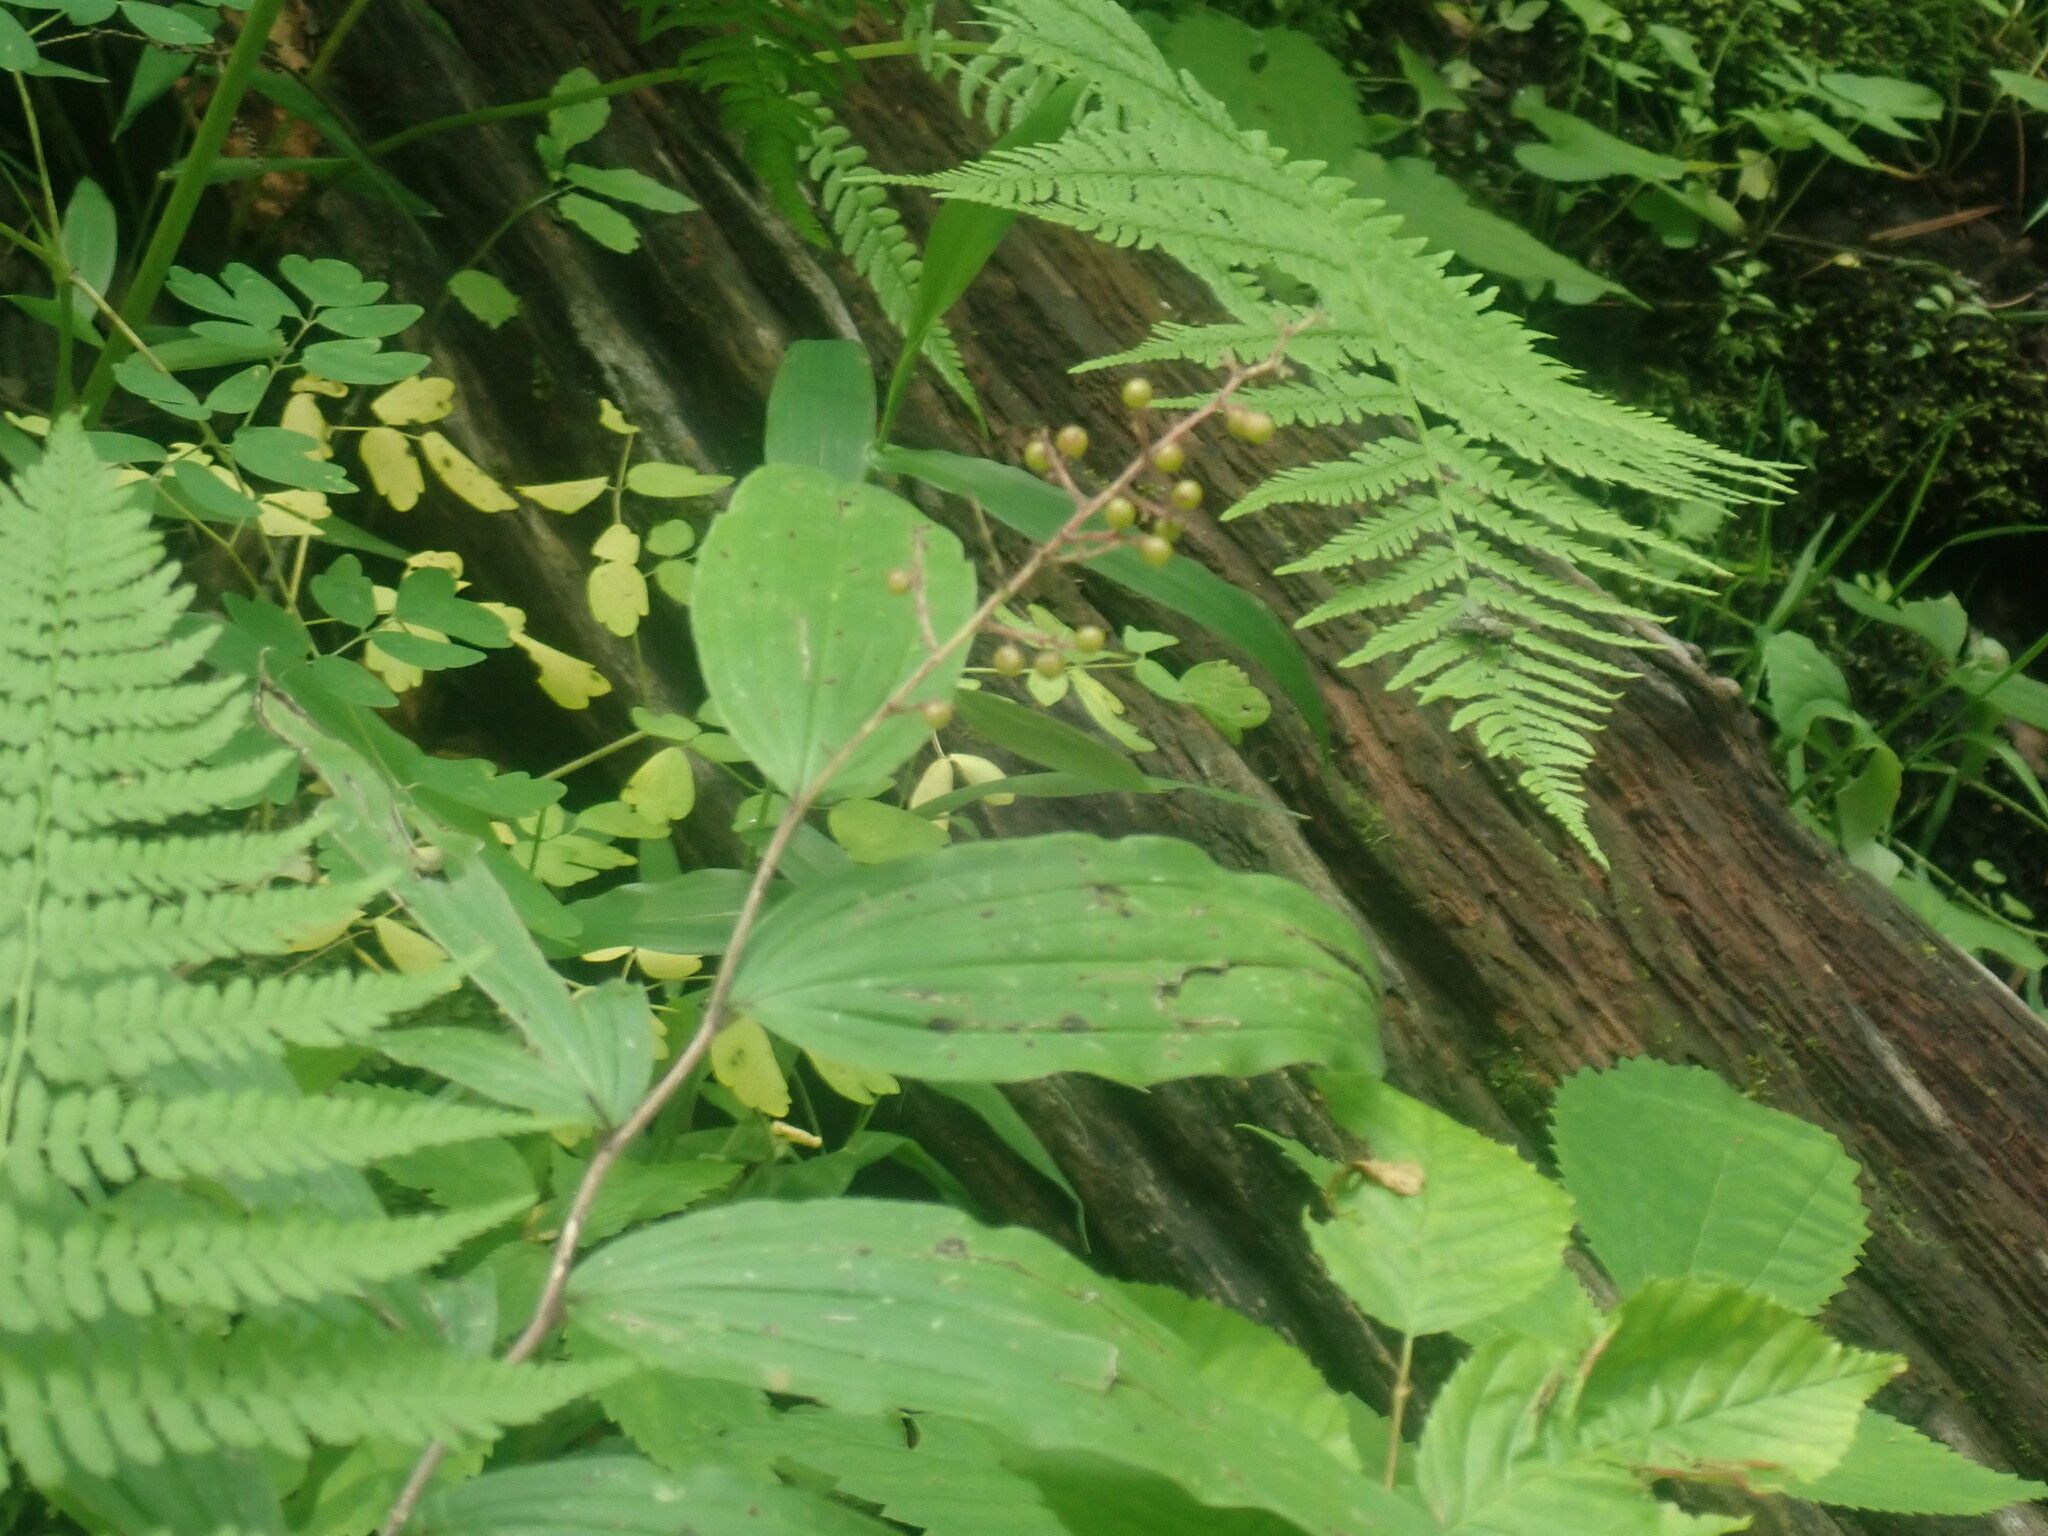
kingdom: Plantae
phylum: Tracheophyta
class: Liliopsida
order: Asparagales
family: Asparagaceae
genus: Maianthemum
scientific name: Maianthemum racemosum
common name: False spikenard
